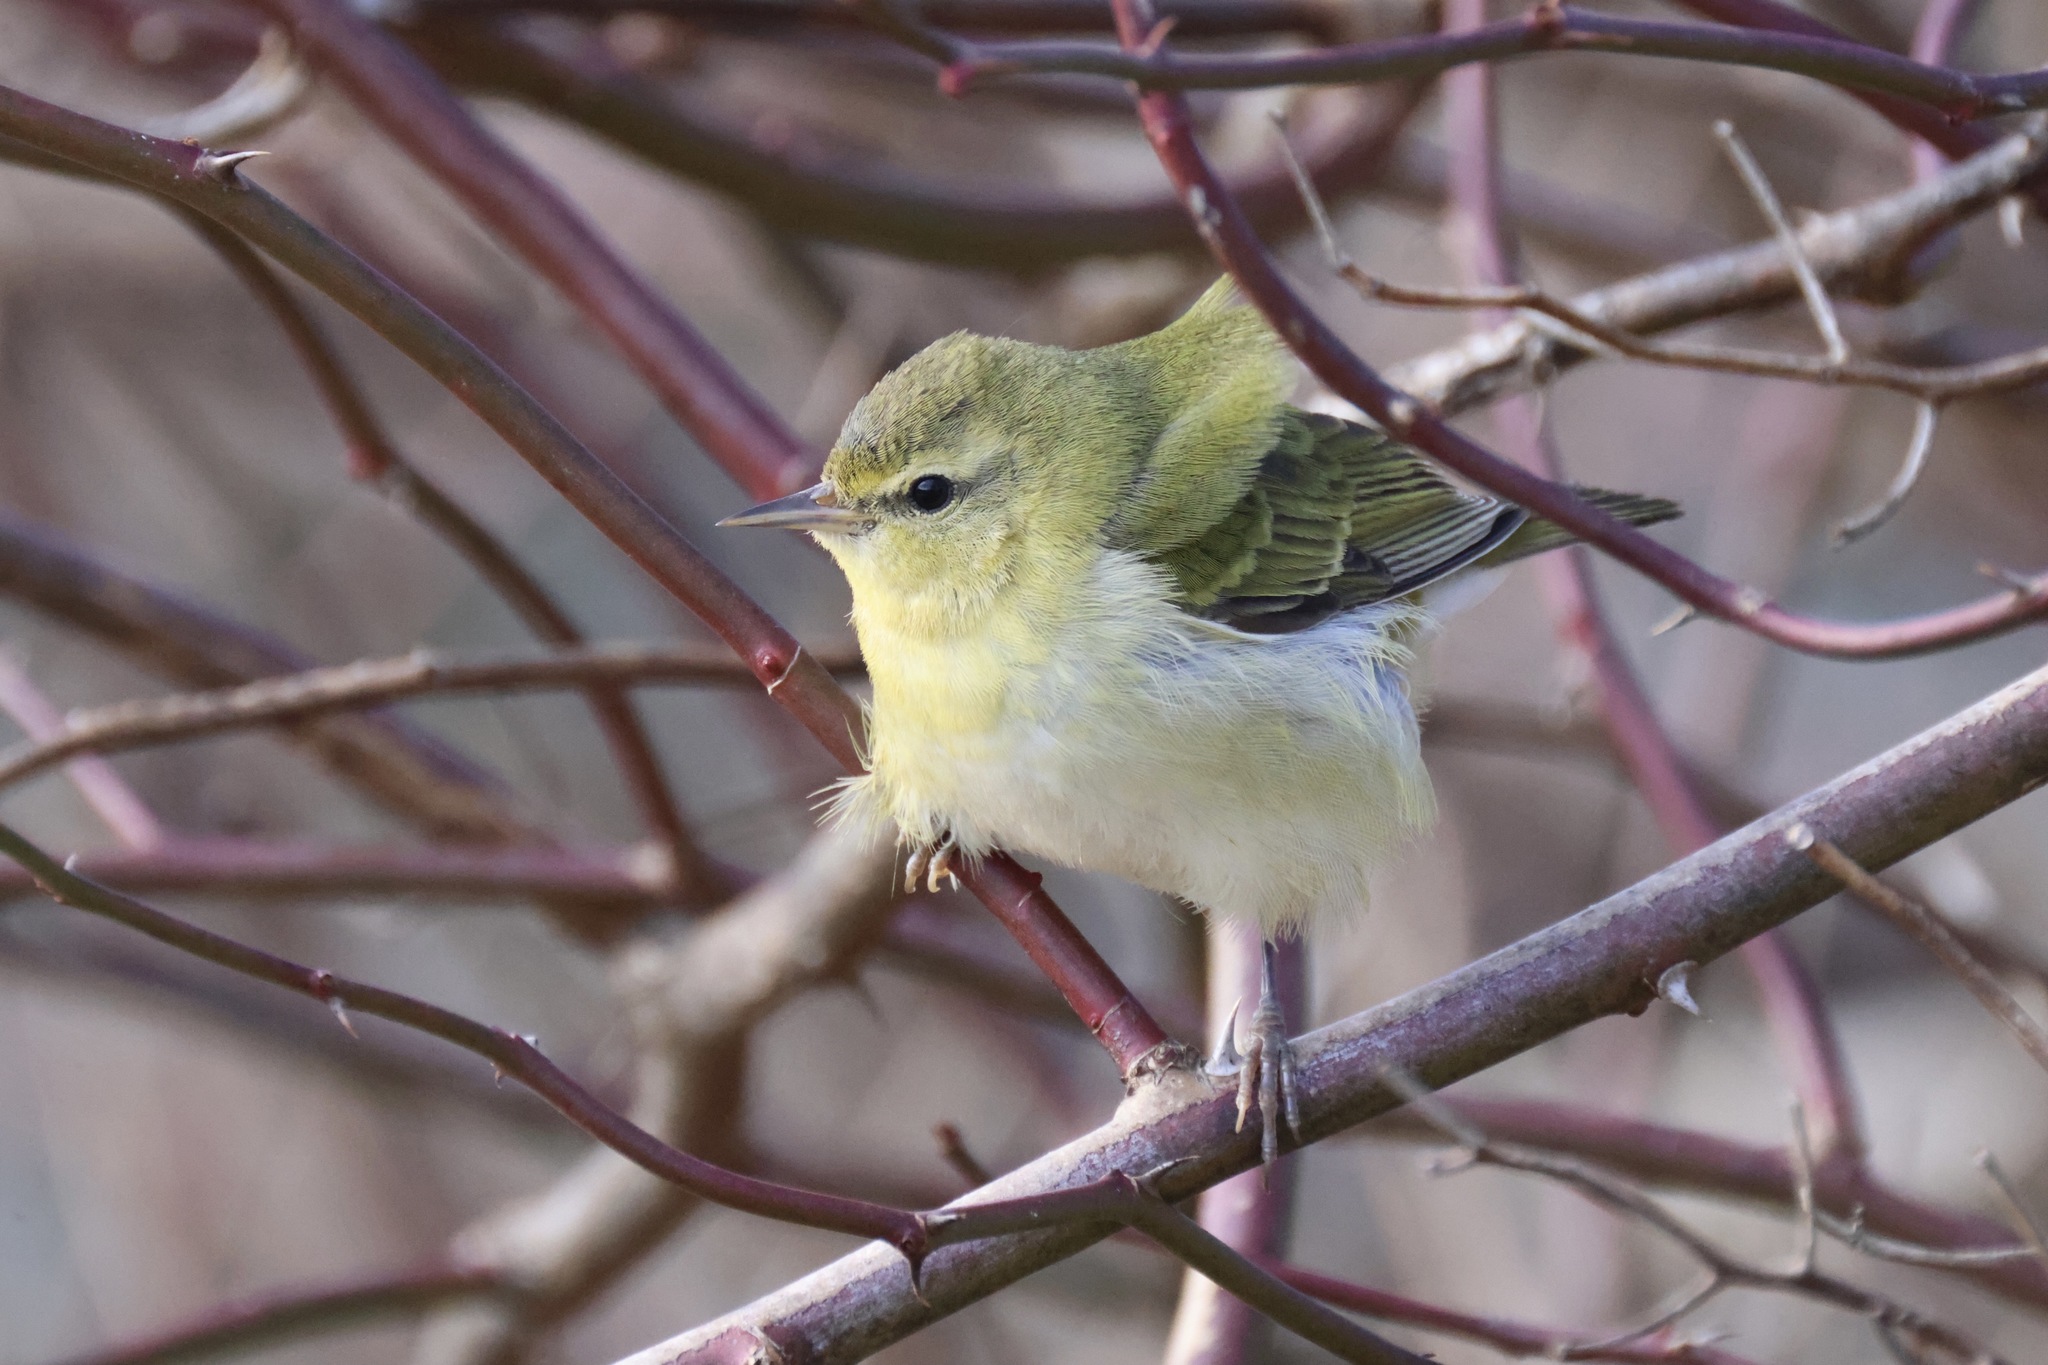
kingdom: Animalia
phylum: Chordata
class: Aves
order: Passeriformes
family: Parulidae
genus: Leiothlypis
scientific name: Leiothlypis peregrina
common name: Tennessee warbler
